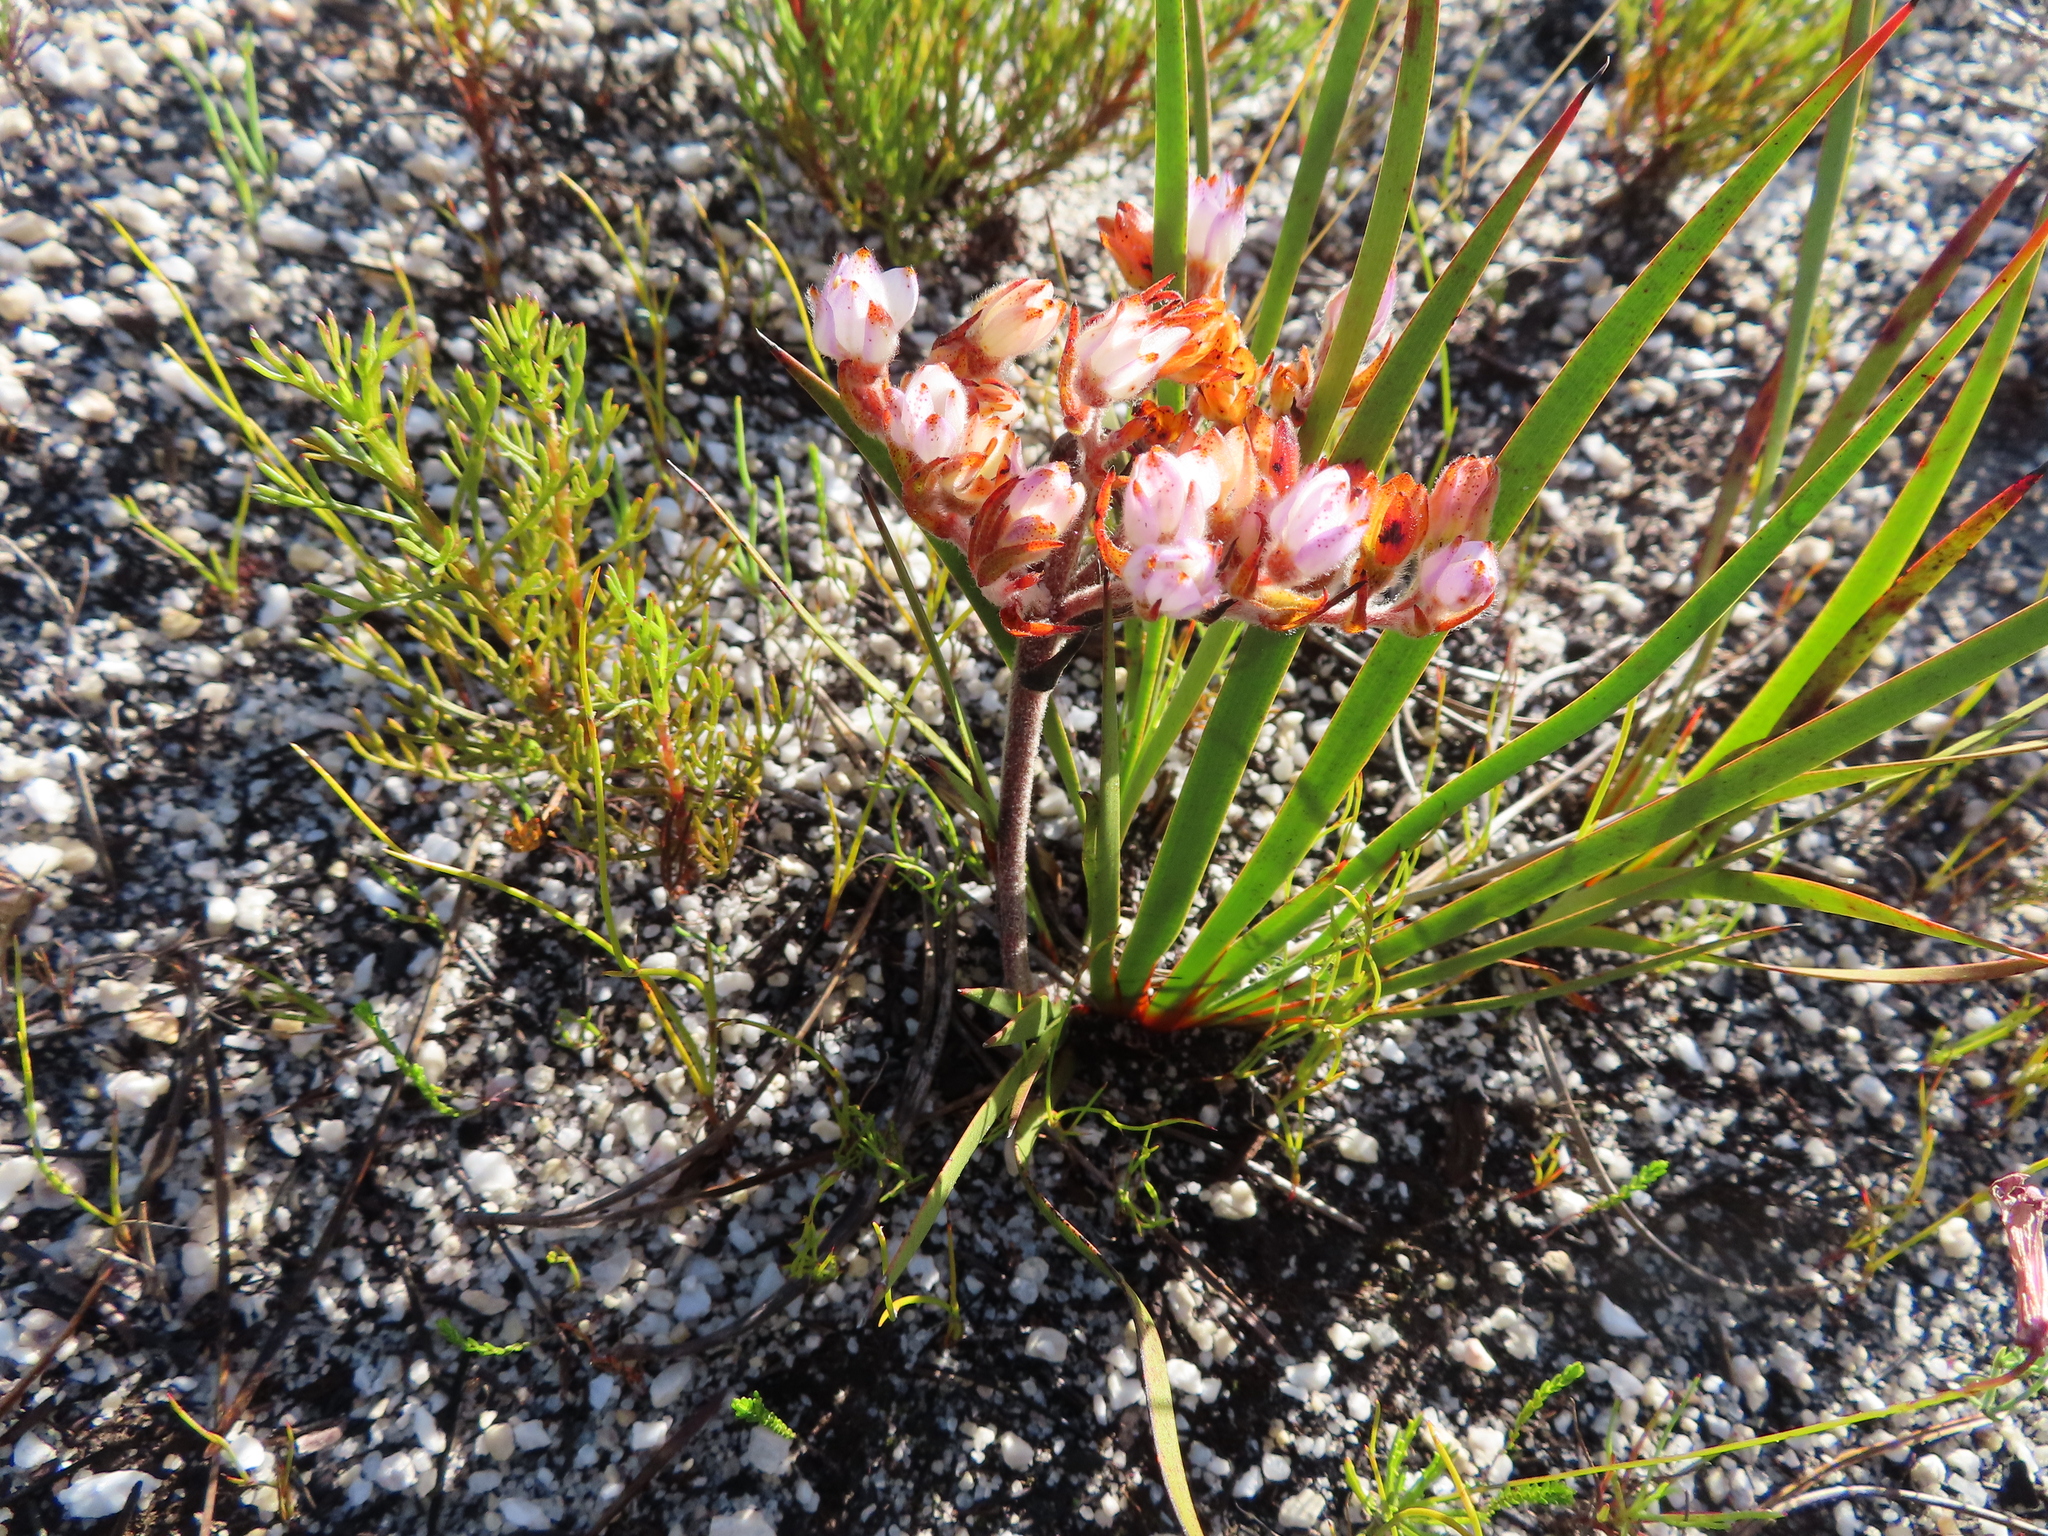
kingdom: Plantae
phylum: Tracheophyta
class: Liliopsida
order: Commelinales
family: Haemodoraceae
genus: Dilatris
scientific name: Dilatris pillansii
